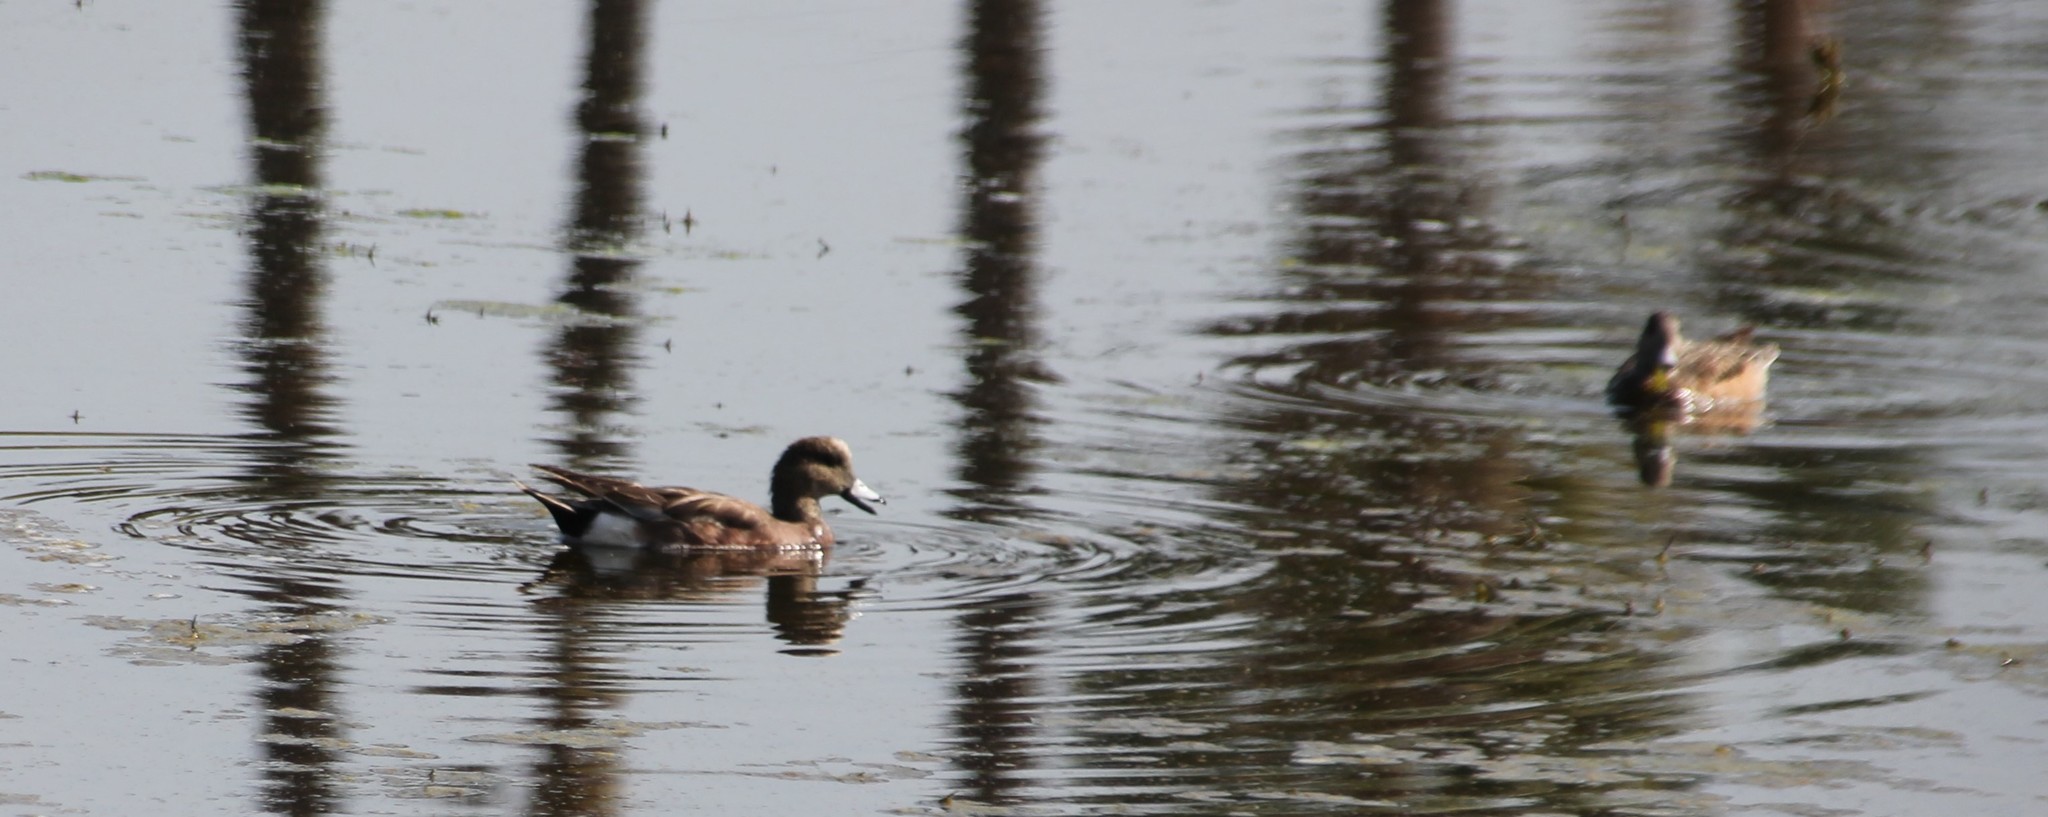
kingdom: Animalia
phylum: Chordata
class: Aves
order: Anseriformes
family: Anatidae
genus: Mareca
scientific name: Mareca americana
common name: American wigeon
